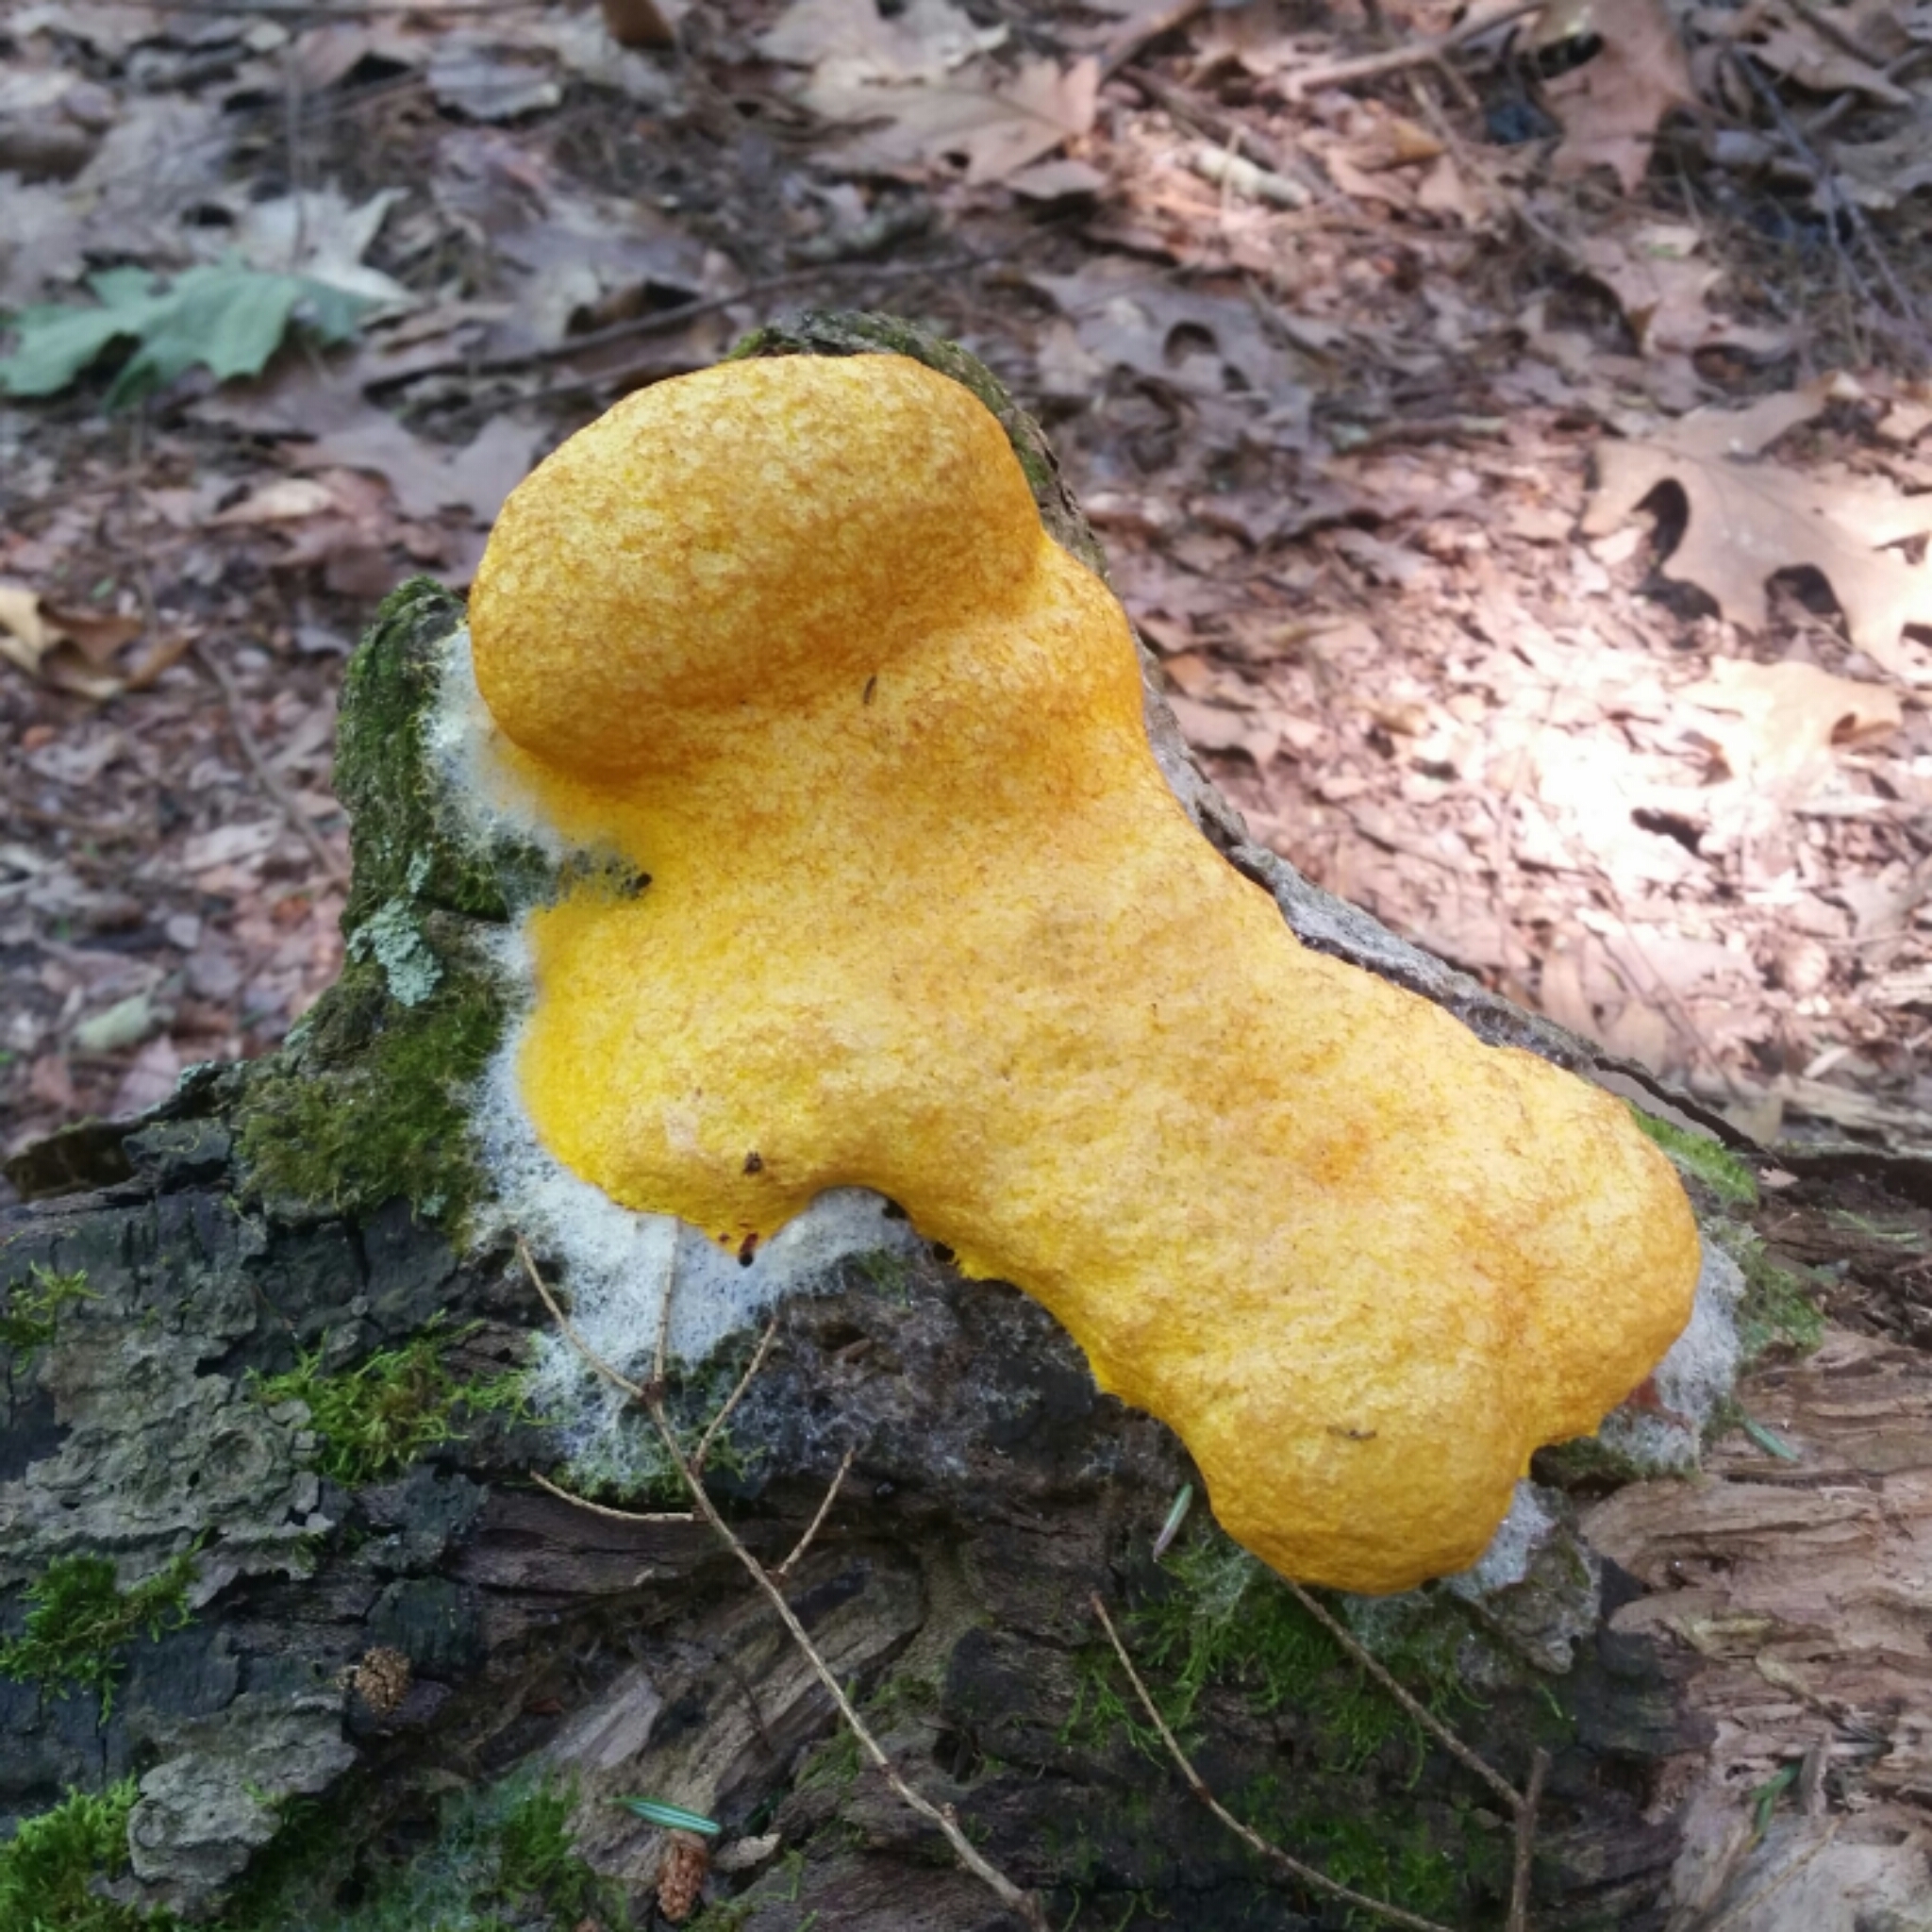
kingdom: Protozoa
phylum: Mycetozoa
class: Myxomycetes
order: Physarales
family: Physaraceae
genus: Fuligo
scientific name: Fuligo septica
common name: Dog vomit slime mold
